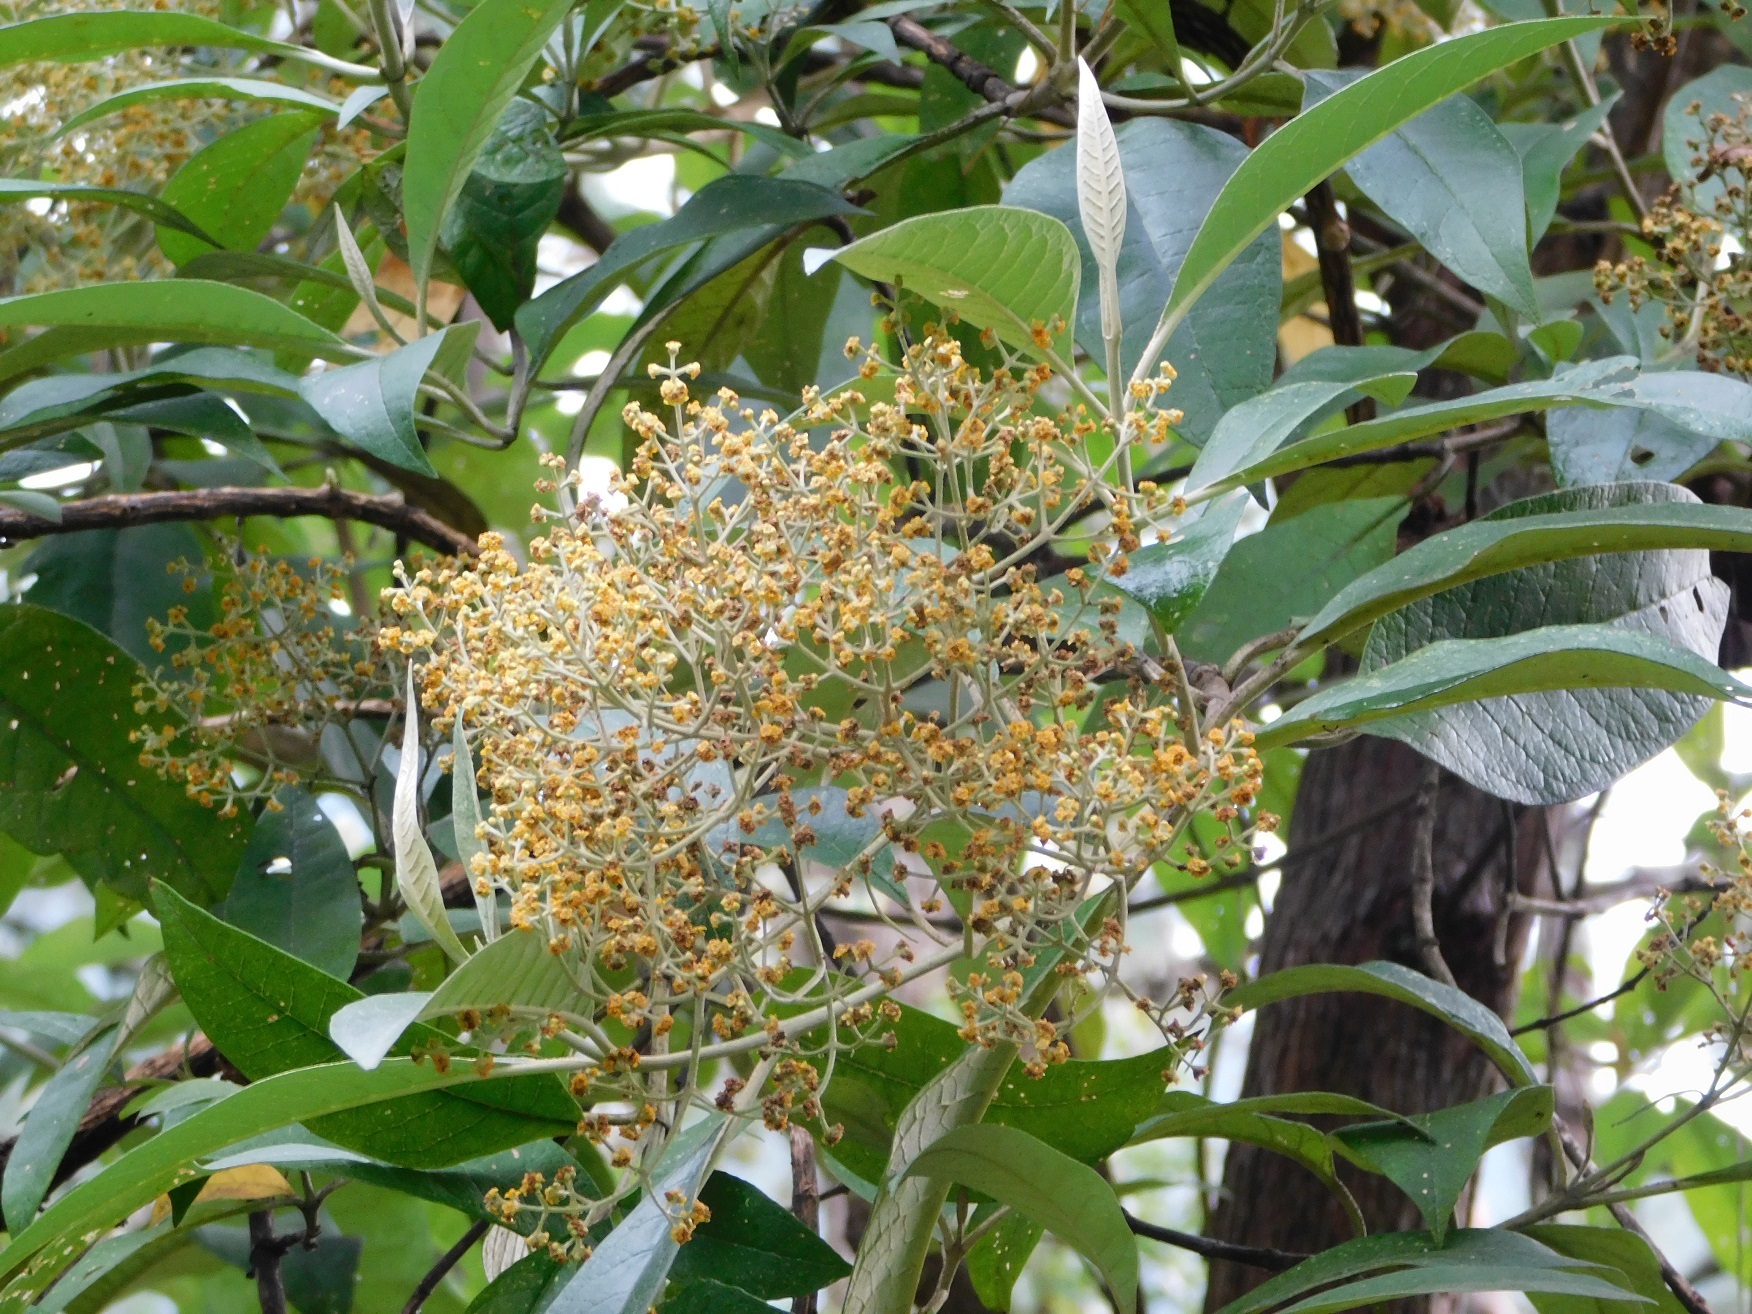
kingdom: Plantae
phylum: Tracheophyta
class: Magnoliopsida
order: Lamiales
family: Scrophulariaceae
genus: Buddleja
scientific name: Buddleja cordata
